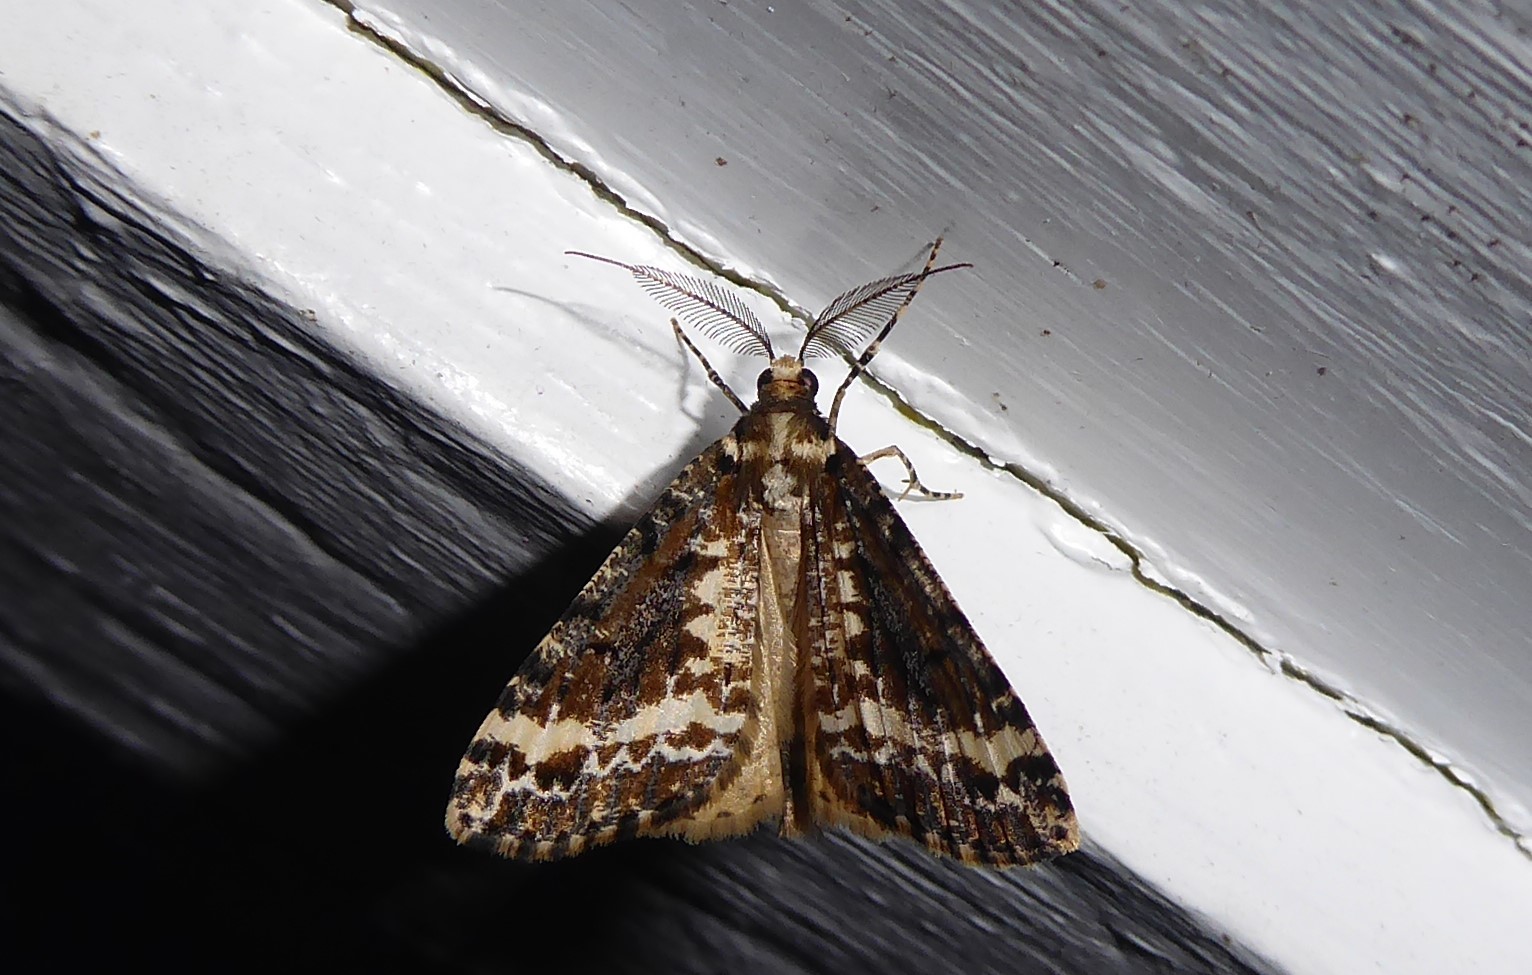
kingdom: Animalia
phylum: Arthropoda
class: Insecta
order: Lepidoptera
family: Geometridae
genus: Pseudocoremia
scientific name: Pseudocoremia leucelaea
